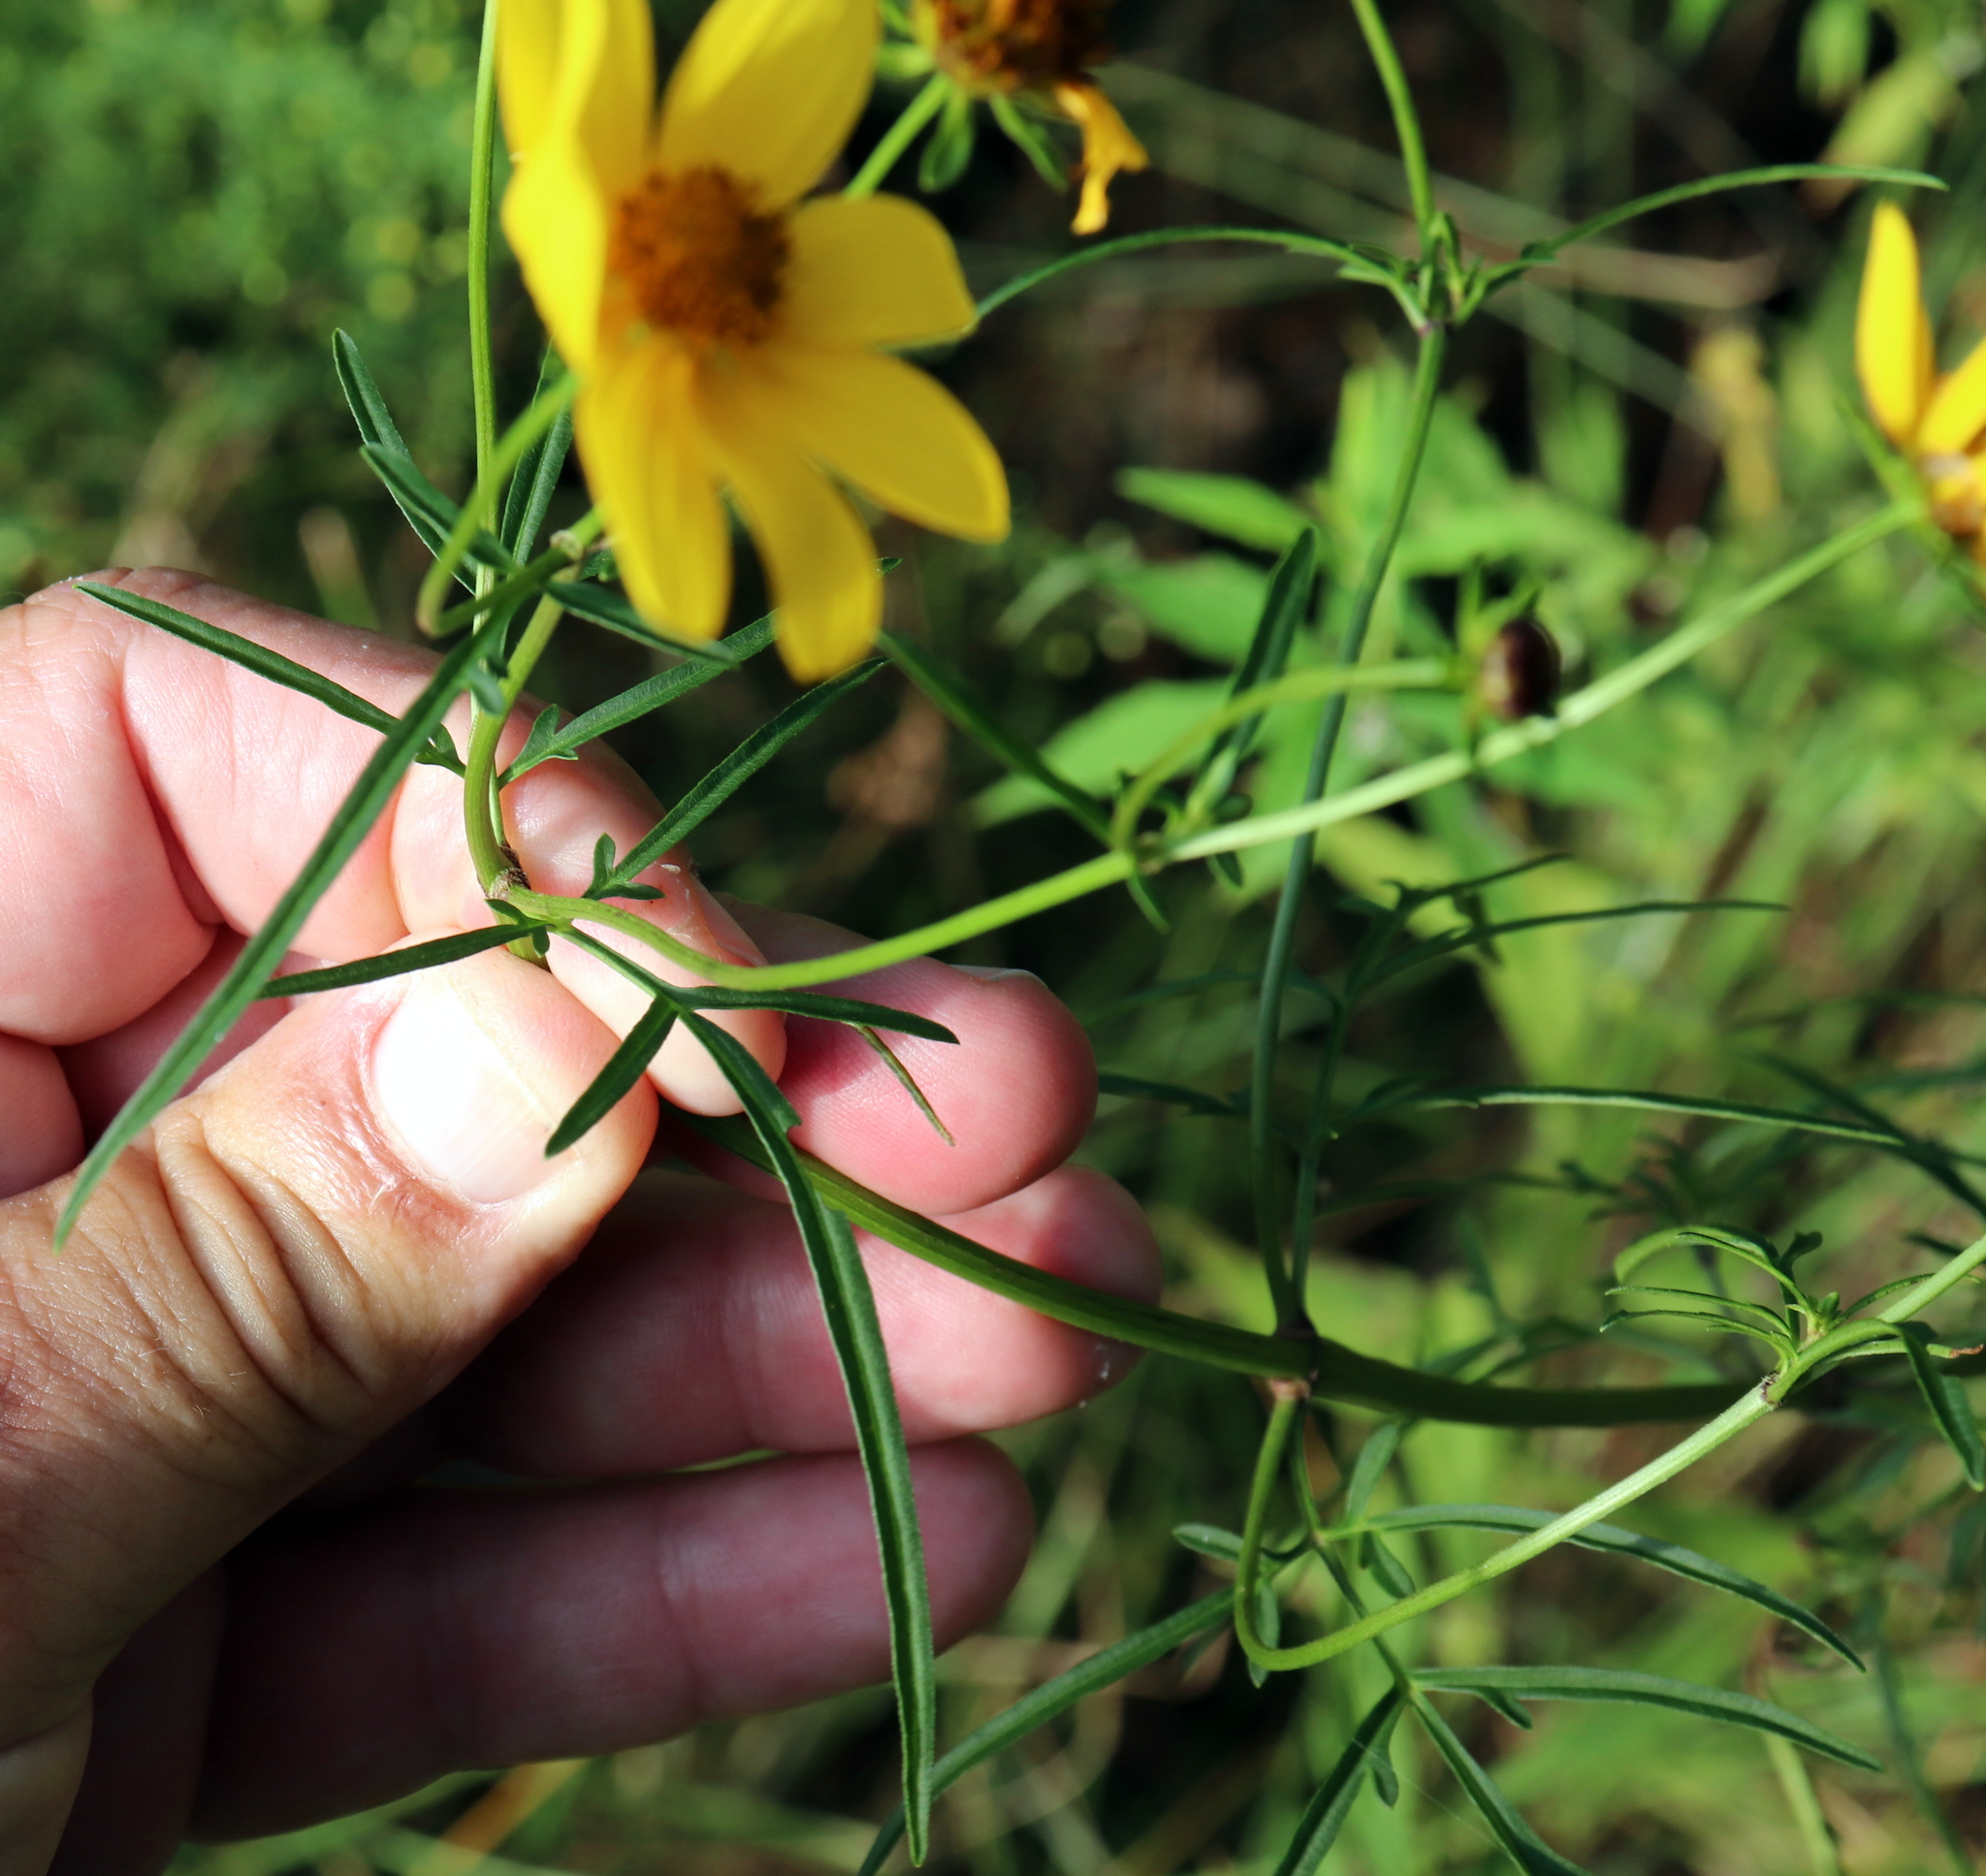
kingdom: Plantae
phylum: Tracheophyta
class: Magnoliopsida
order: Asterales
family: Asteraceae
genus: Bidens
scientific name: Bidens mitis
